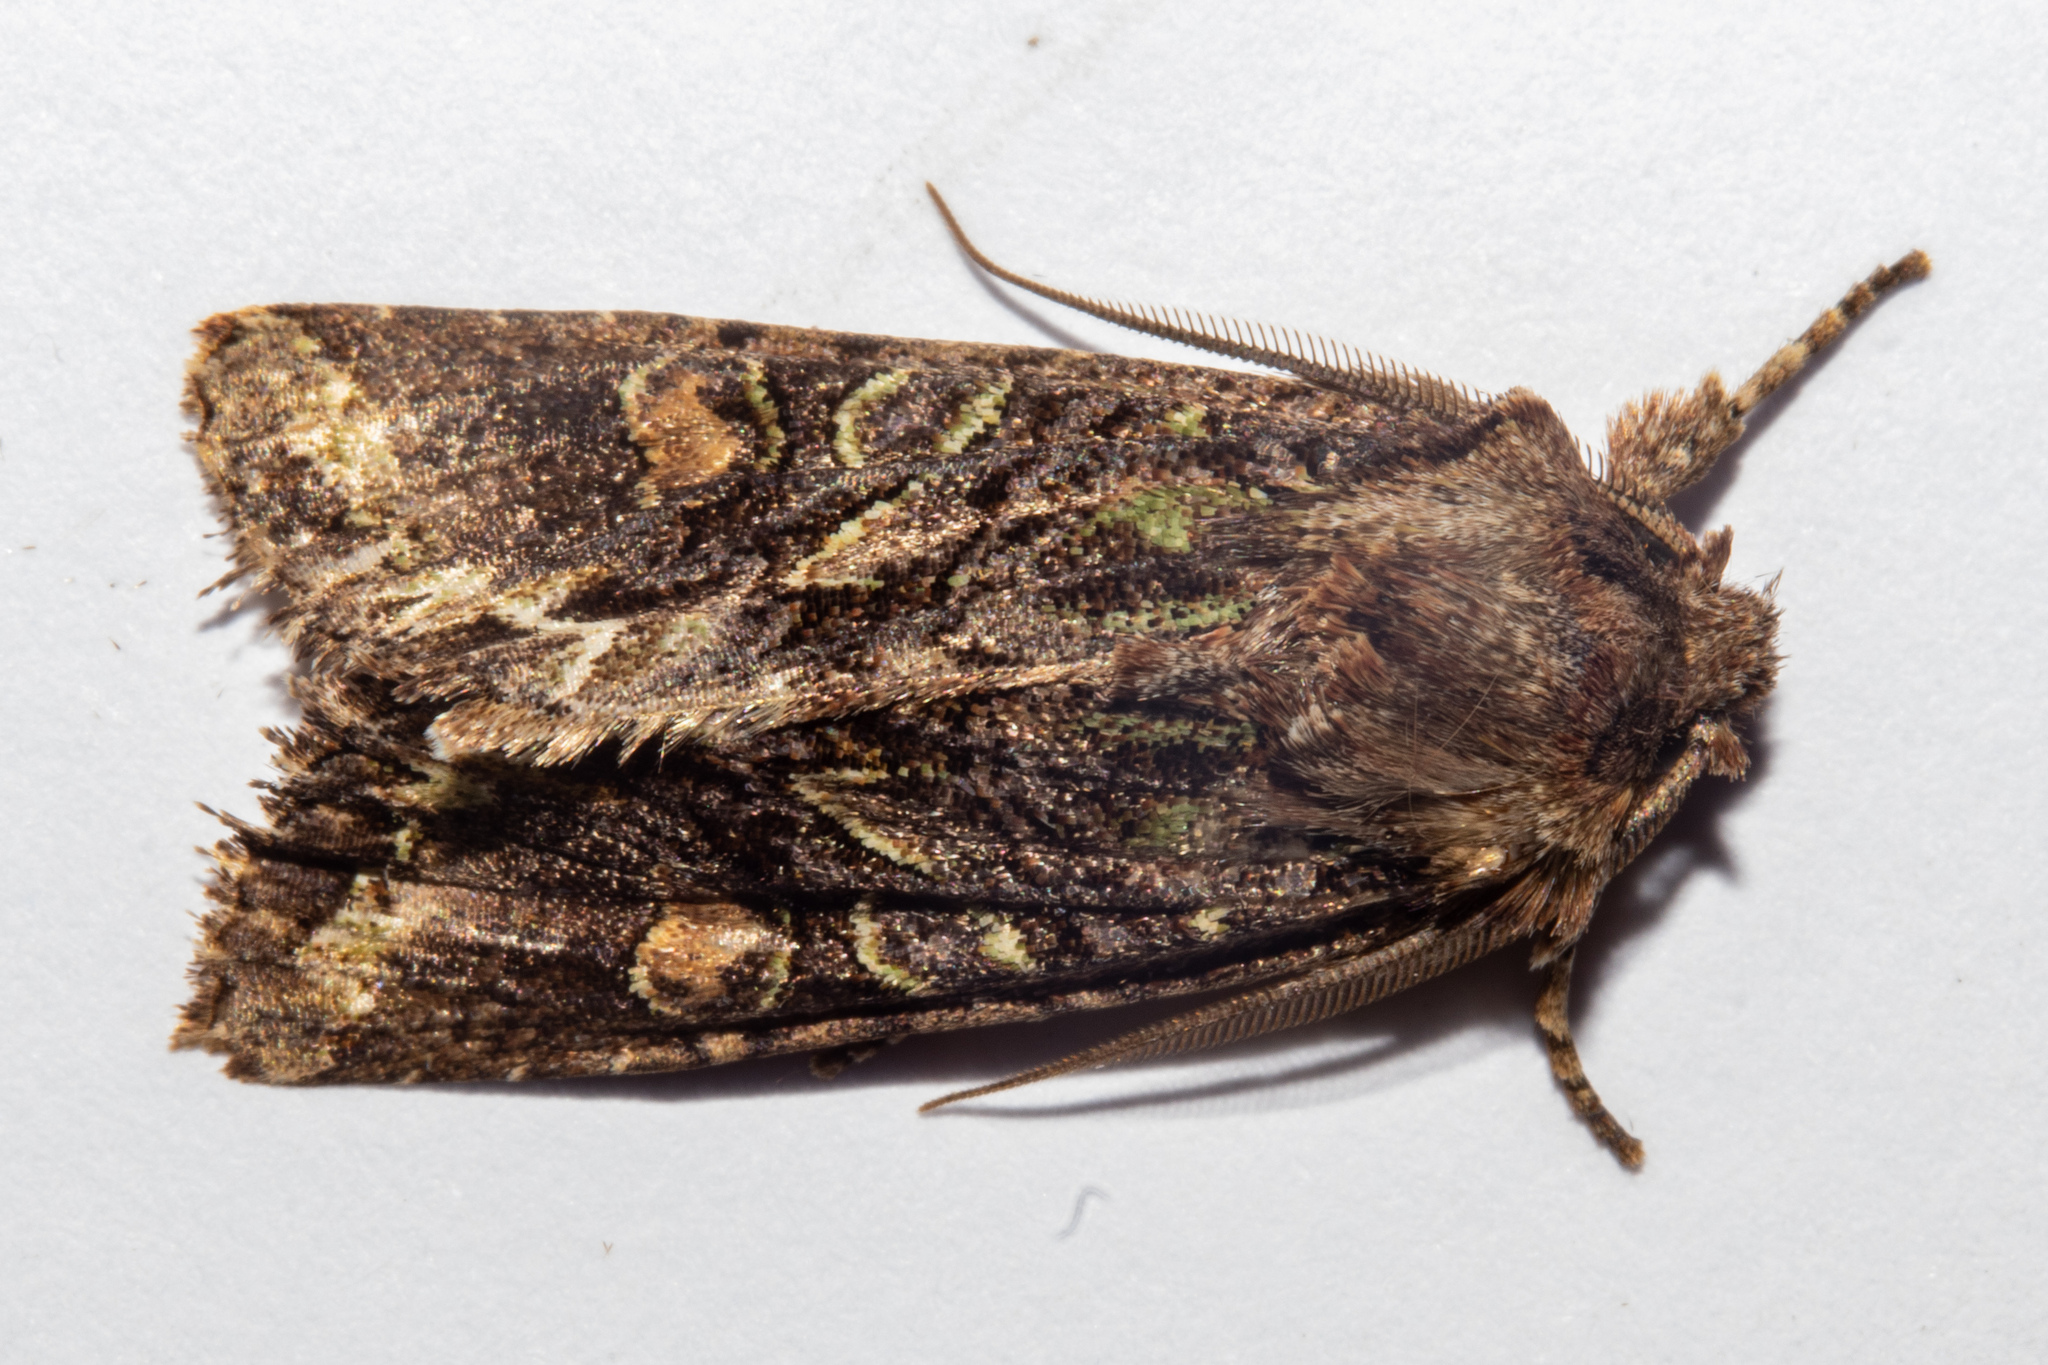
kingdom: Animalia
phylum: Arthropoda
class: Insecta
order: Lepidoptera
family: Noctuidae
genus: Ichneutica
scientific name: Ichneutica insignis
